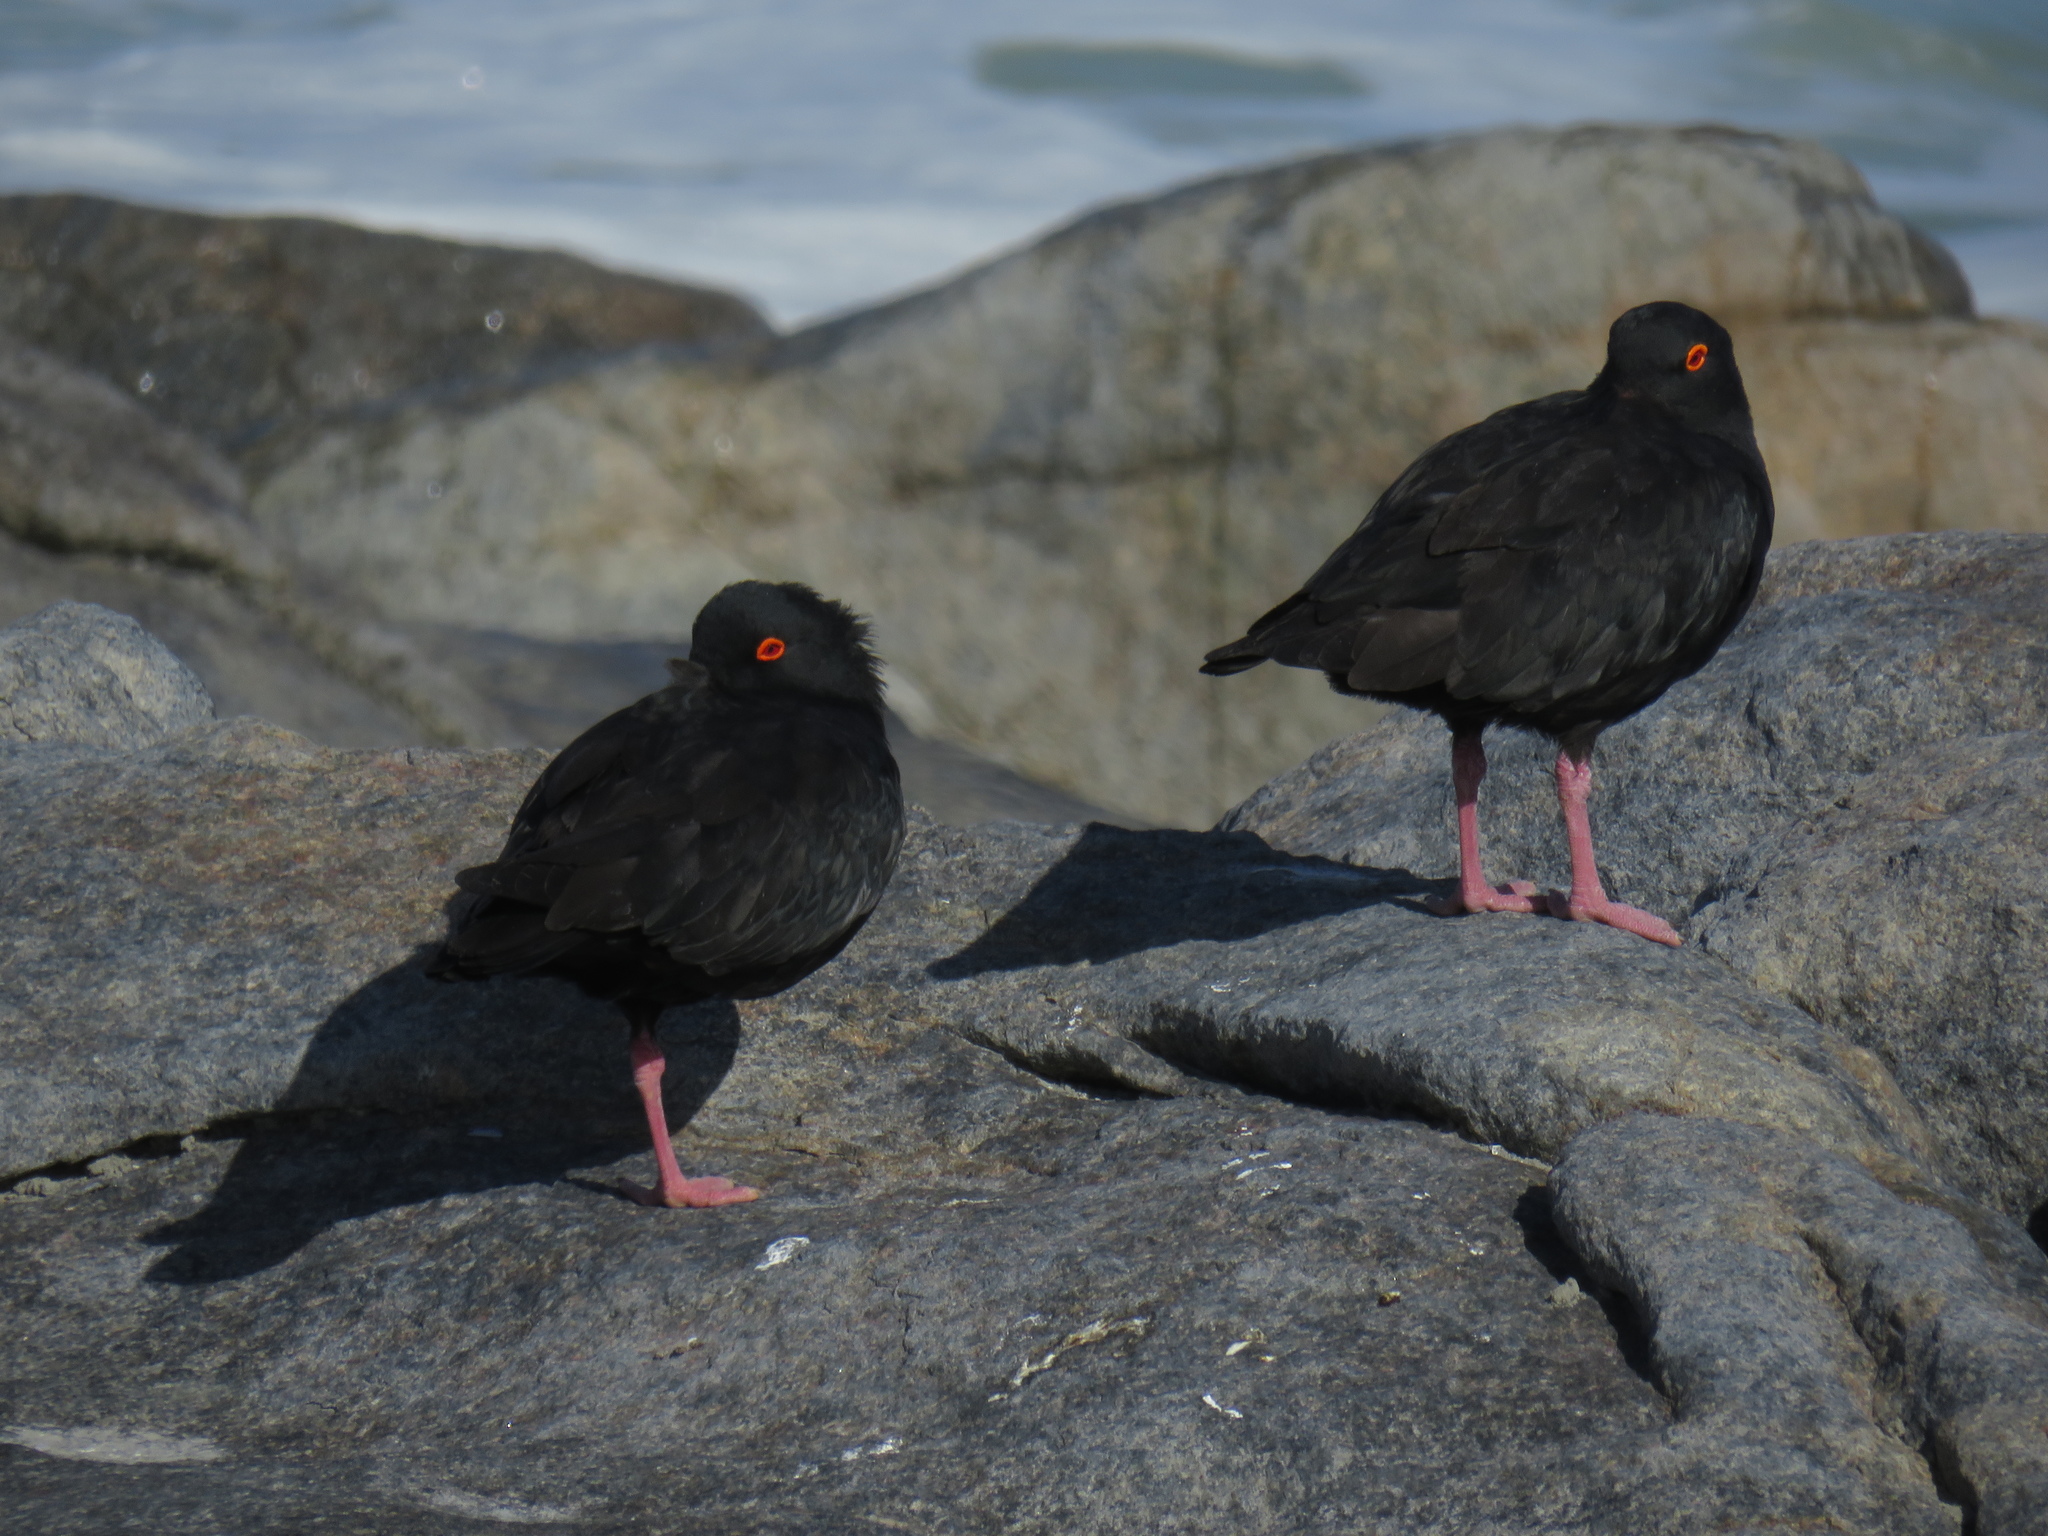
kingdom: Animalia
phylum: Chordata
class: Aves
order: Charadriiformes
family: Haematopodidae
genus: Haematopus
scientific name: Haematopus moquini
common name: African oystercatcher
